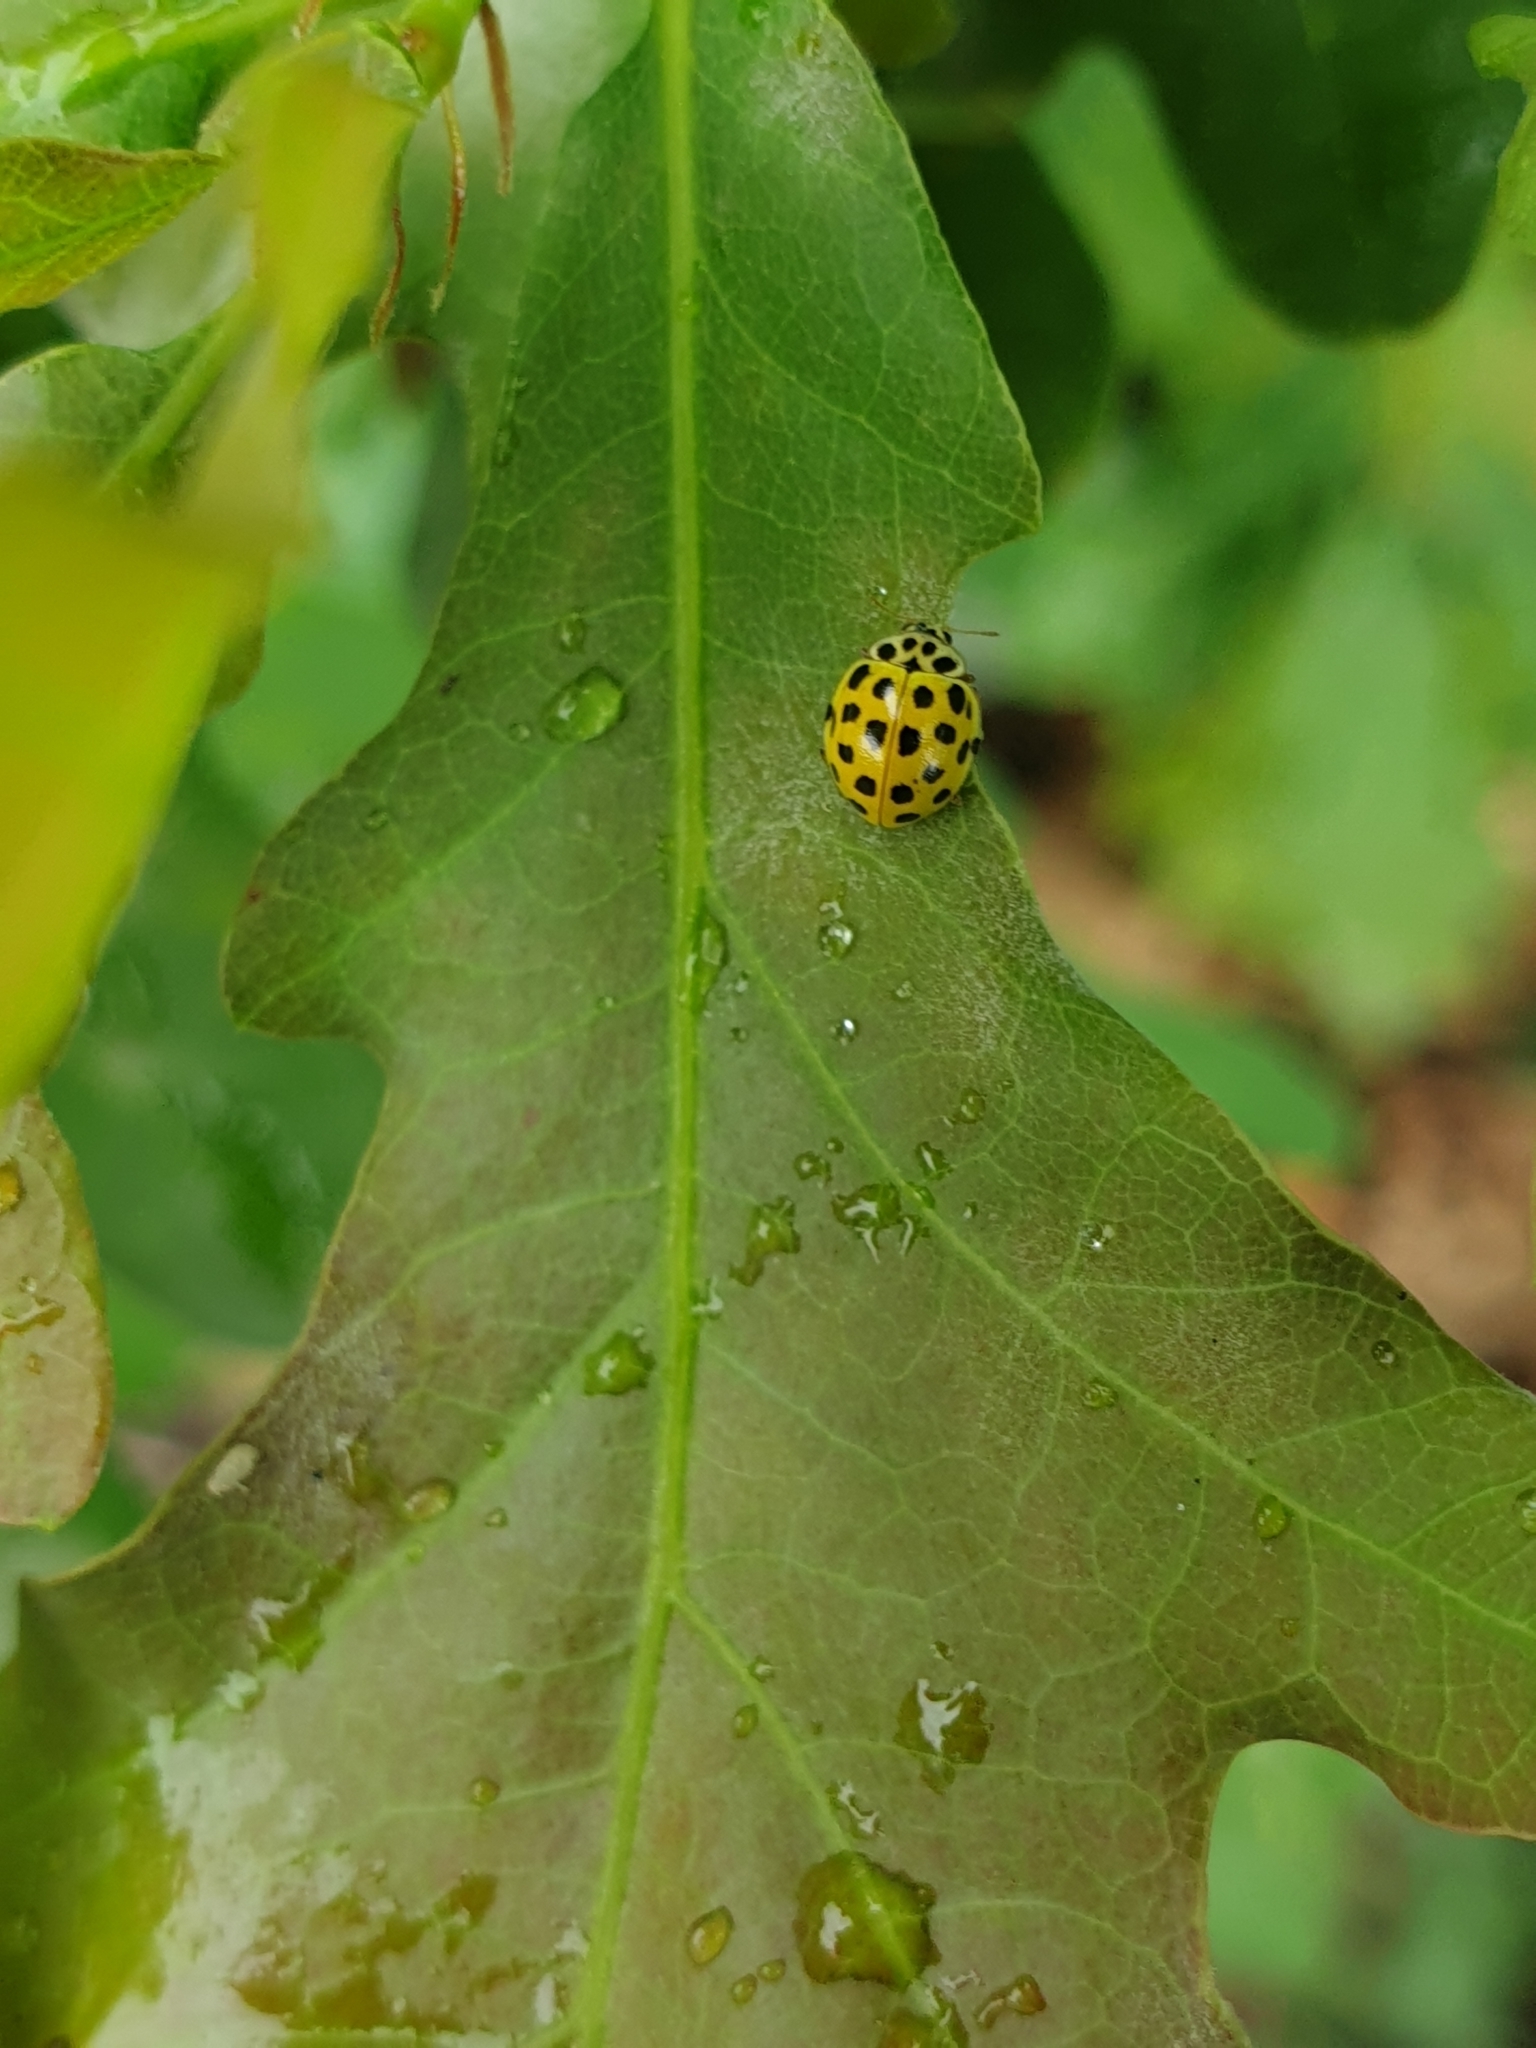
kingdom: Animalia
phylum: Arthropoda
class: Insecta
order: Coleoptera
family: Coccinellidae
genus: Psyllobora
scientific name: Psyllobora vigintiduopunctata
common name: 22-spot ladybird
